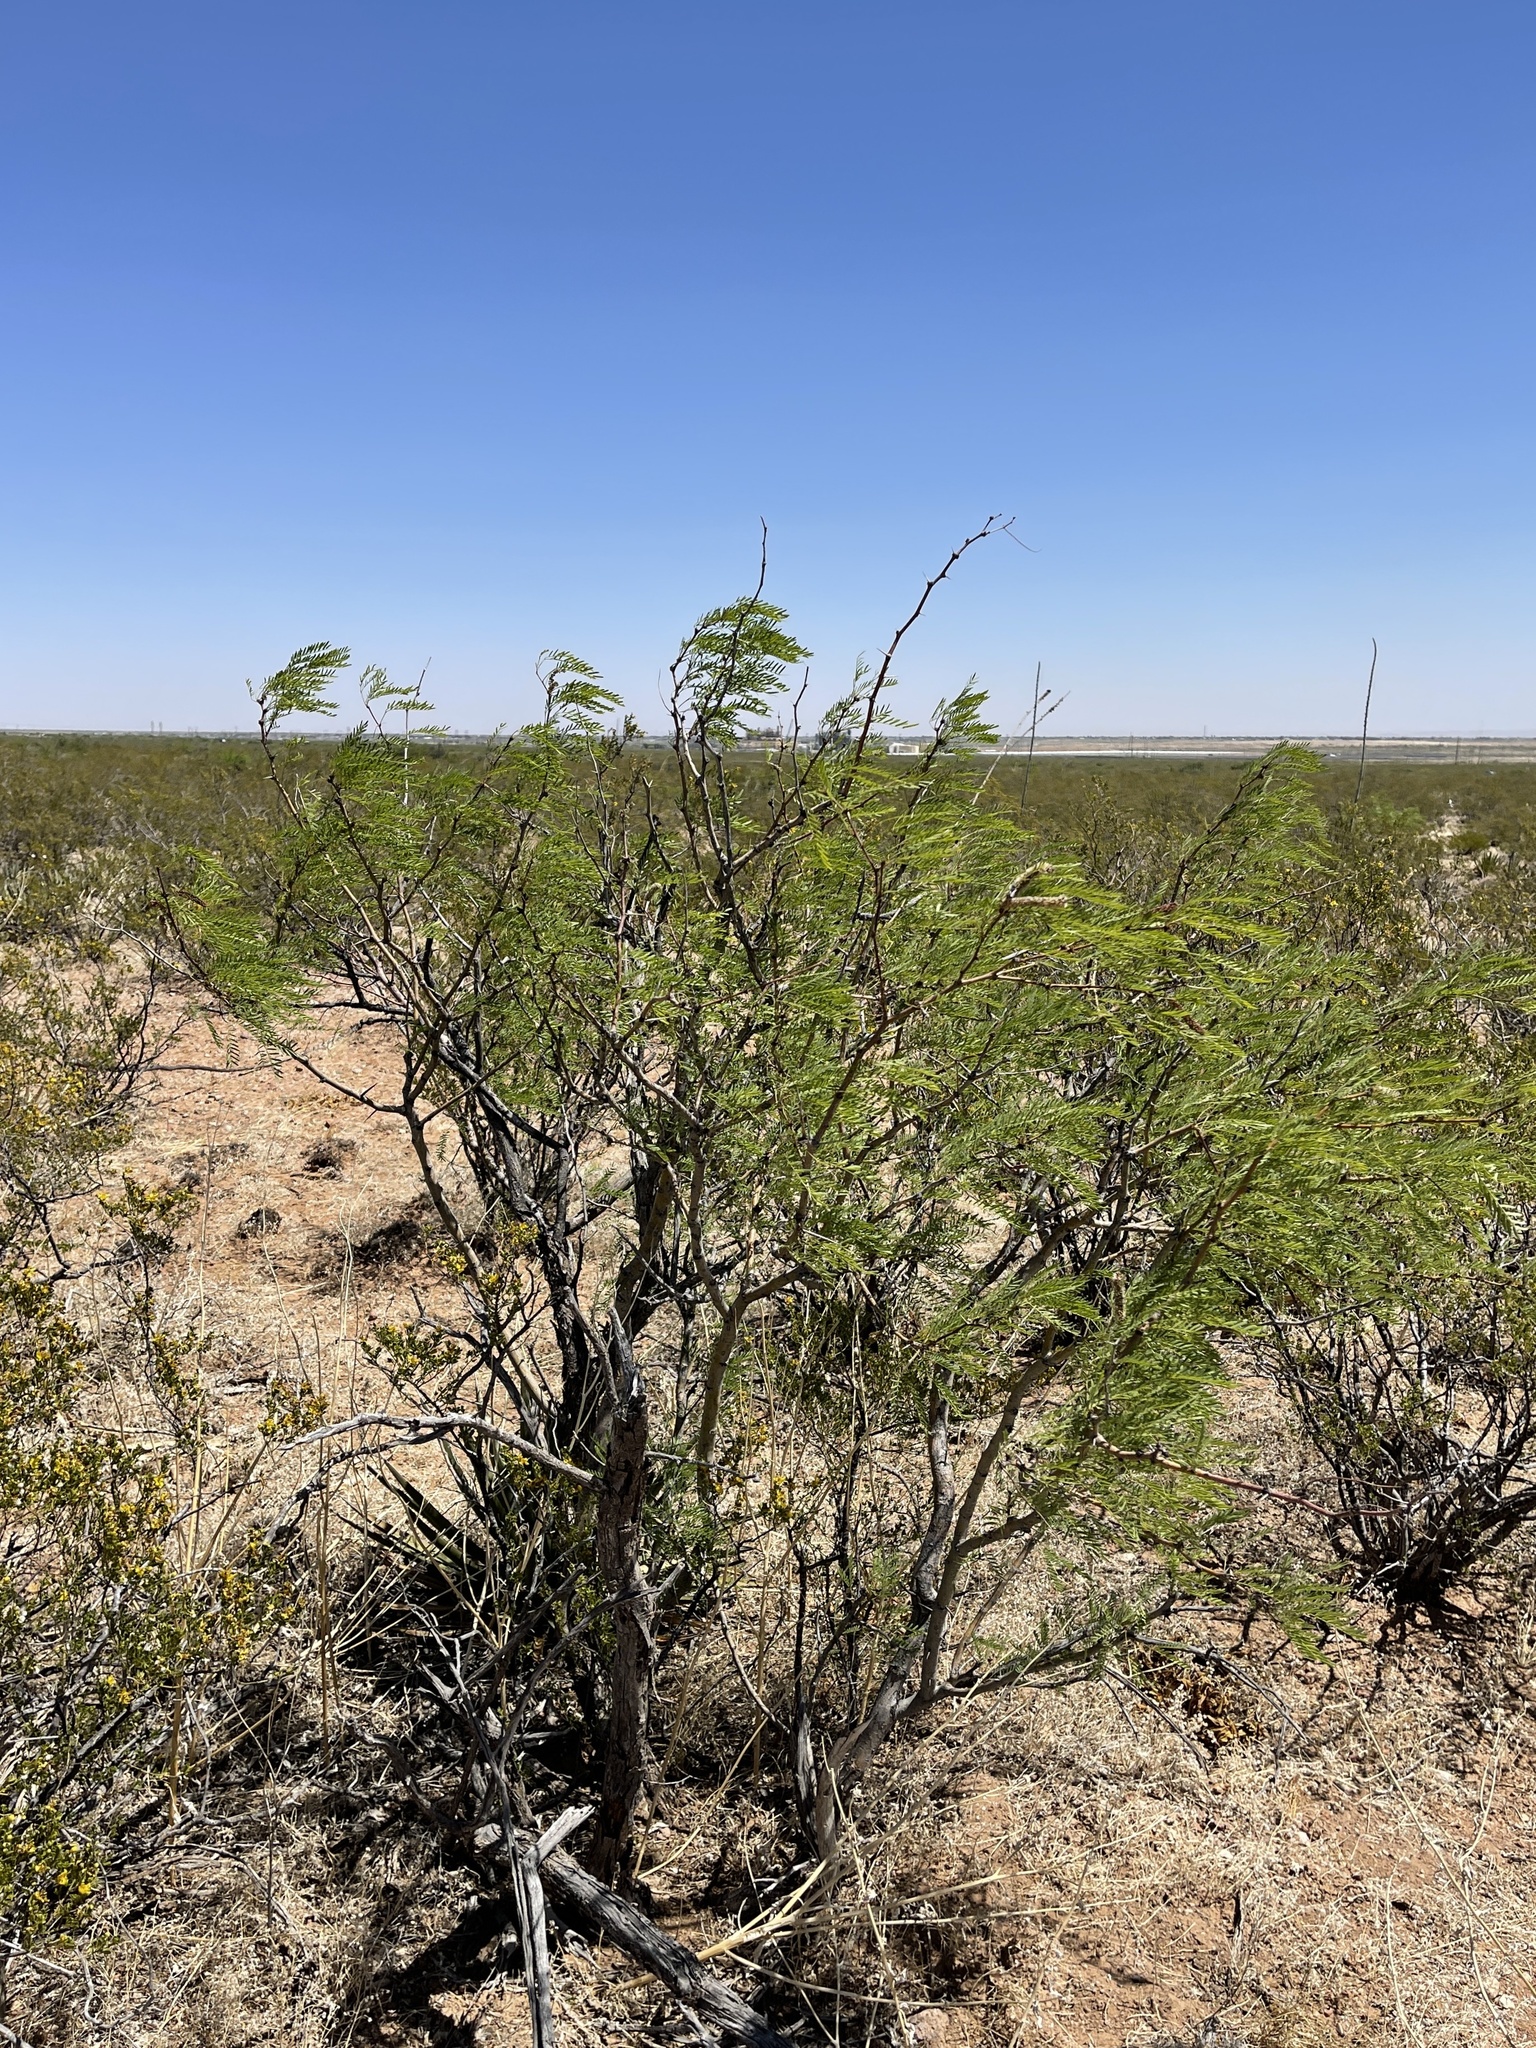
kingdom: Plantae
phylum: Tracheophyta
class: Magnoliopsida
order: Fabales
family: Fabaceae
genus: Prosopis
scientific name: Prosopis glandulosa
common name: Honey mesquite
